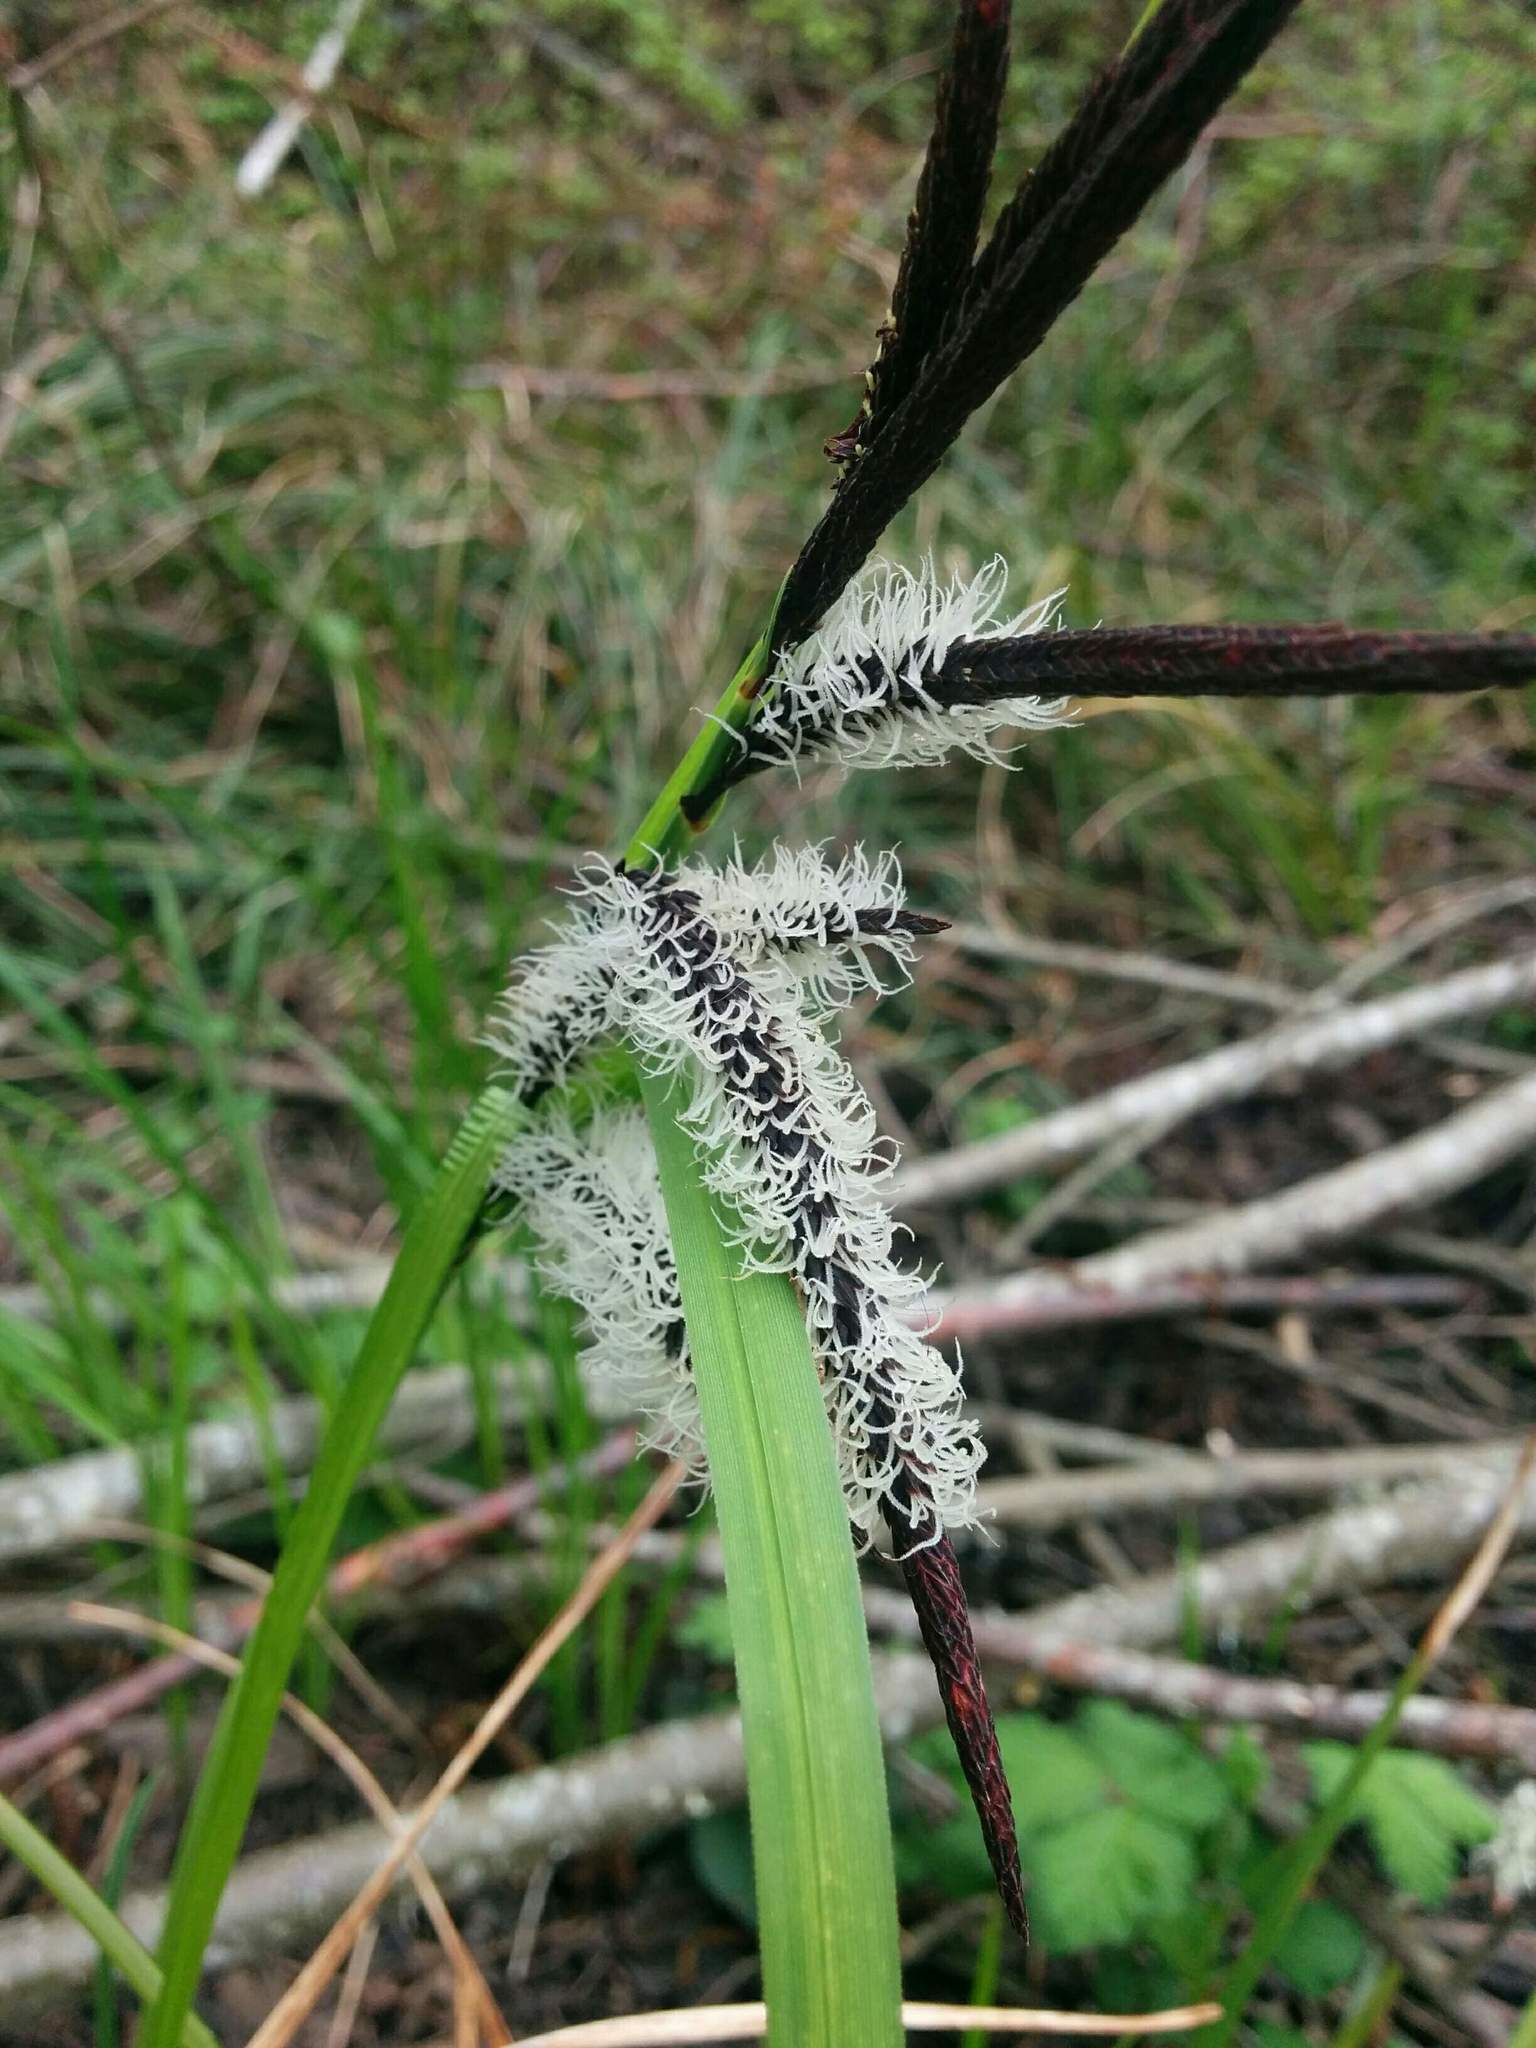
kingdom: Plantae
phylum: Tracheophyta
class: Liliopsida
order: Poales
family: Cyperaceae
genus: Carex
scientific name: Carex obnupta
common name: Slough sedge
